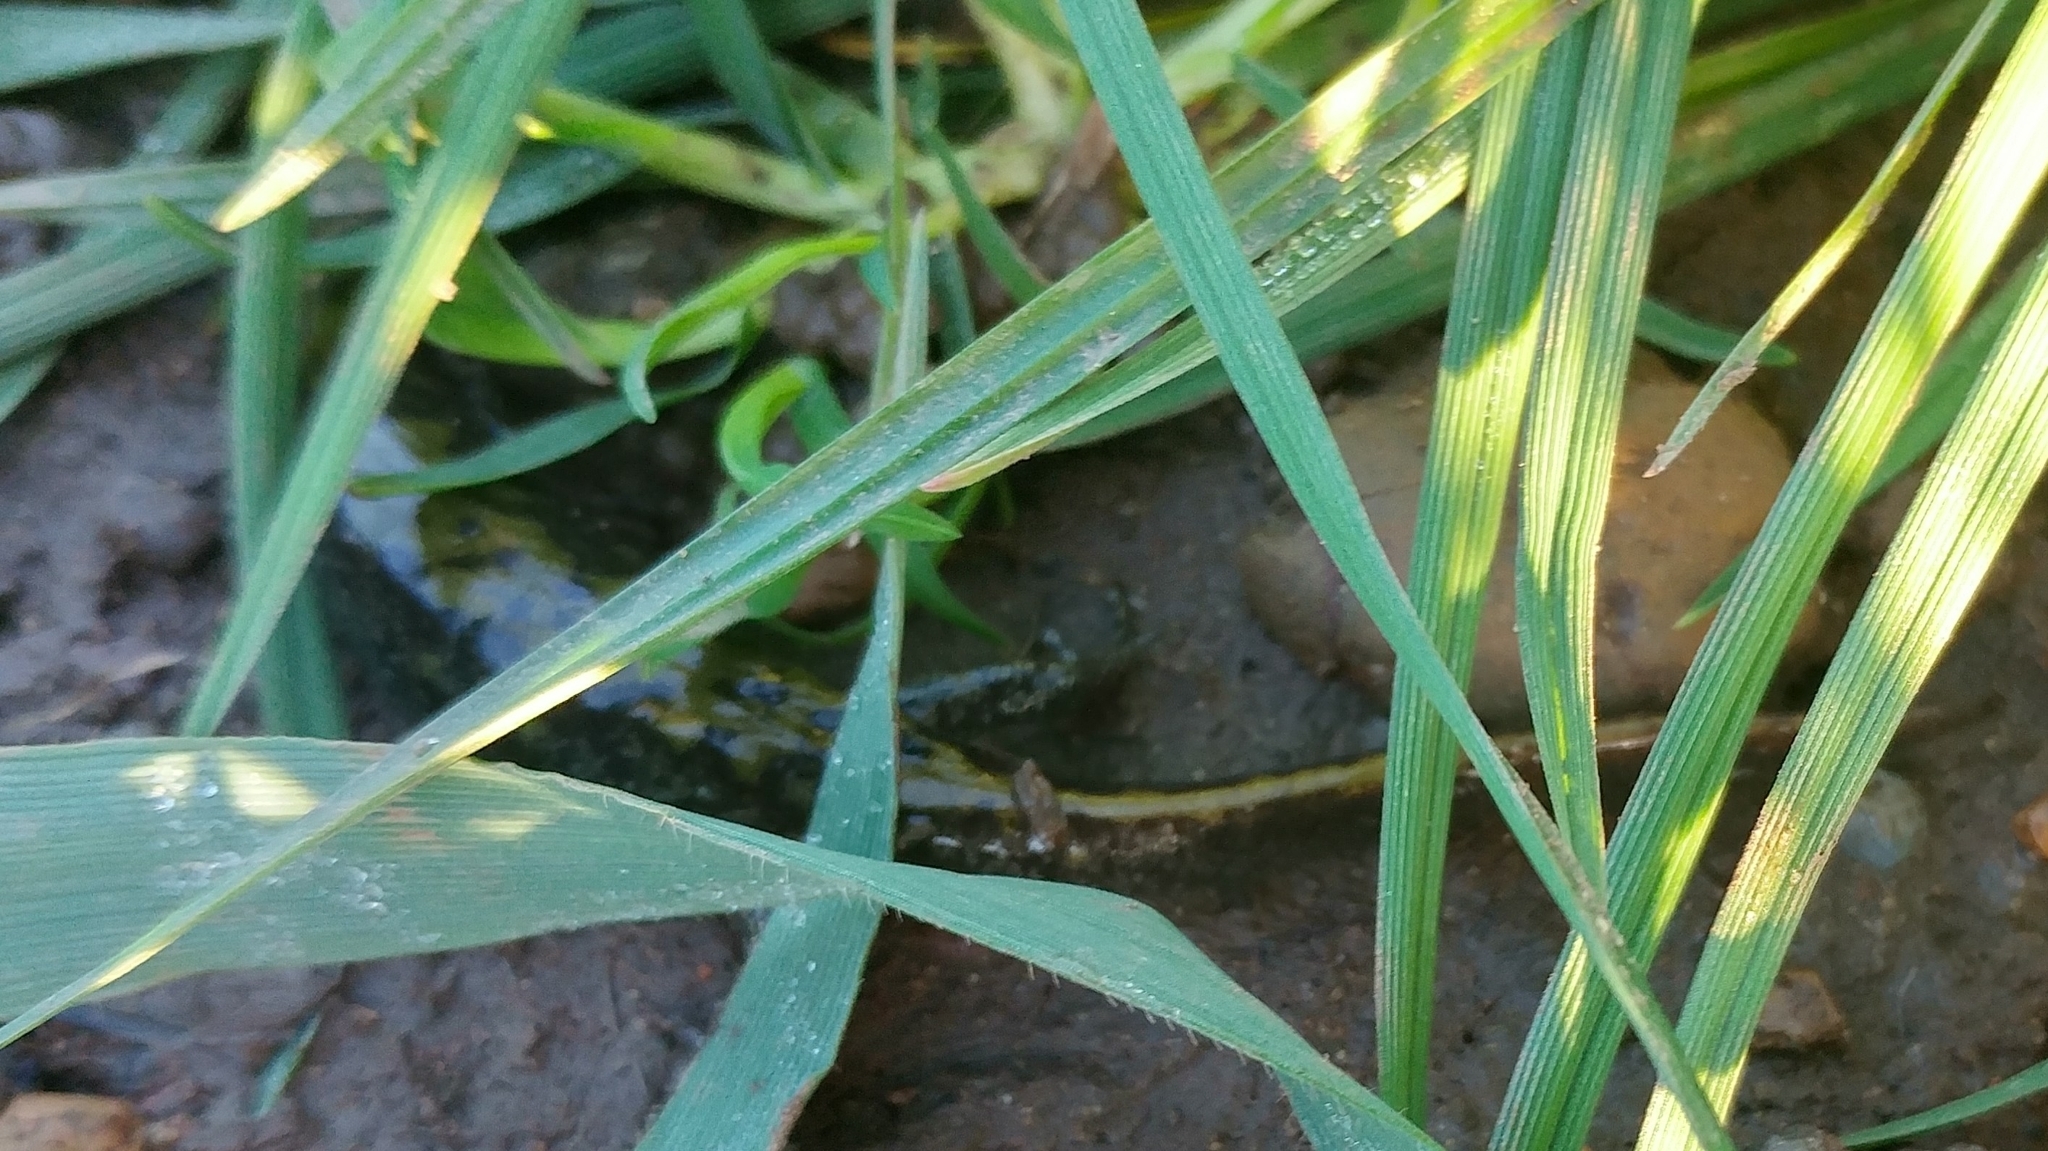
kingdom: Animalia
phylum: Chordata
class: Amphibia
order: Caudata
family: Ambystomatidae
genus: Ambystoma
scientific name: Ambystoma macrodactylum
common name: Long-toed salamander
